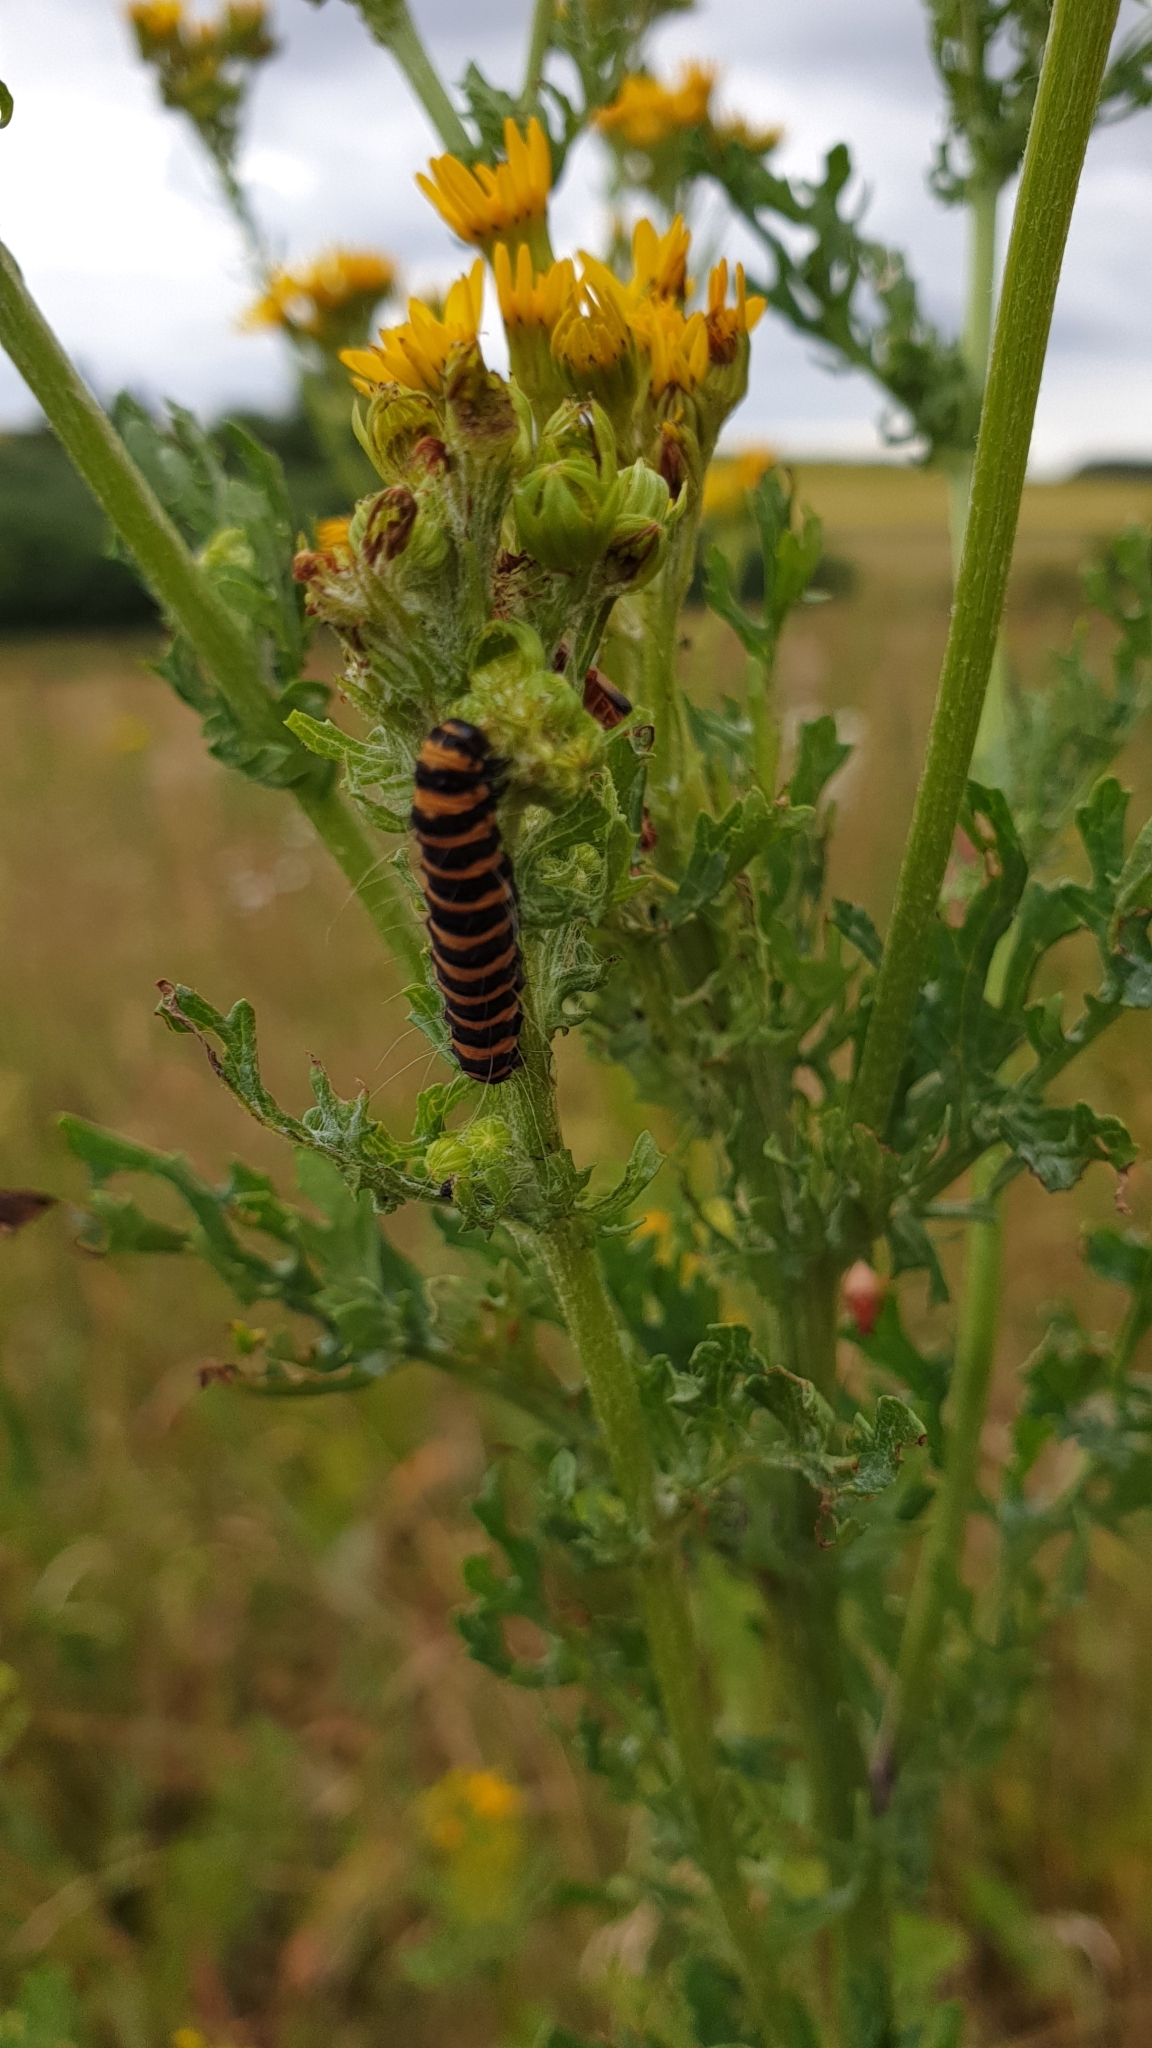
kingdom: Animalia
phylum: Arthropoda
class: Insecta
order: Lepidoptera
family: Erebidae
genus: Tyria
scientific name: Tyria jacobaeae
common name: Cinnabar
